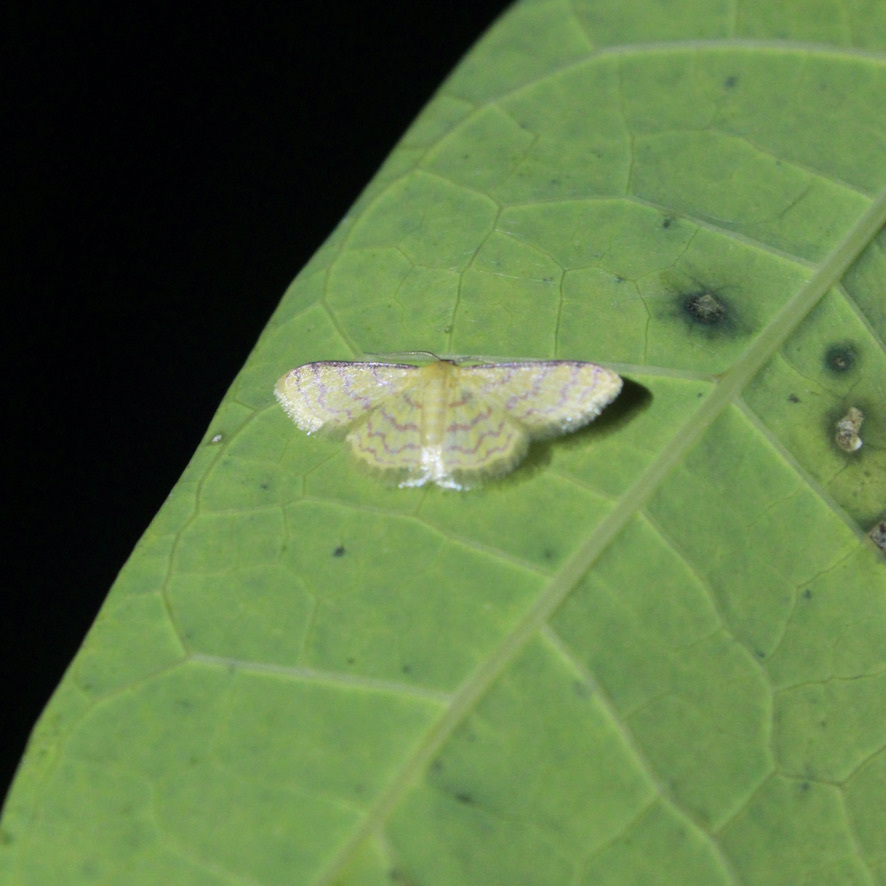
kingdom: Animalia
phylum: Arthropoda
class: Insecta
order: Lepidoptera
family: Geometridae
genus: Tricentrogyna
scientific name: Tricentrogyna deportata
